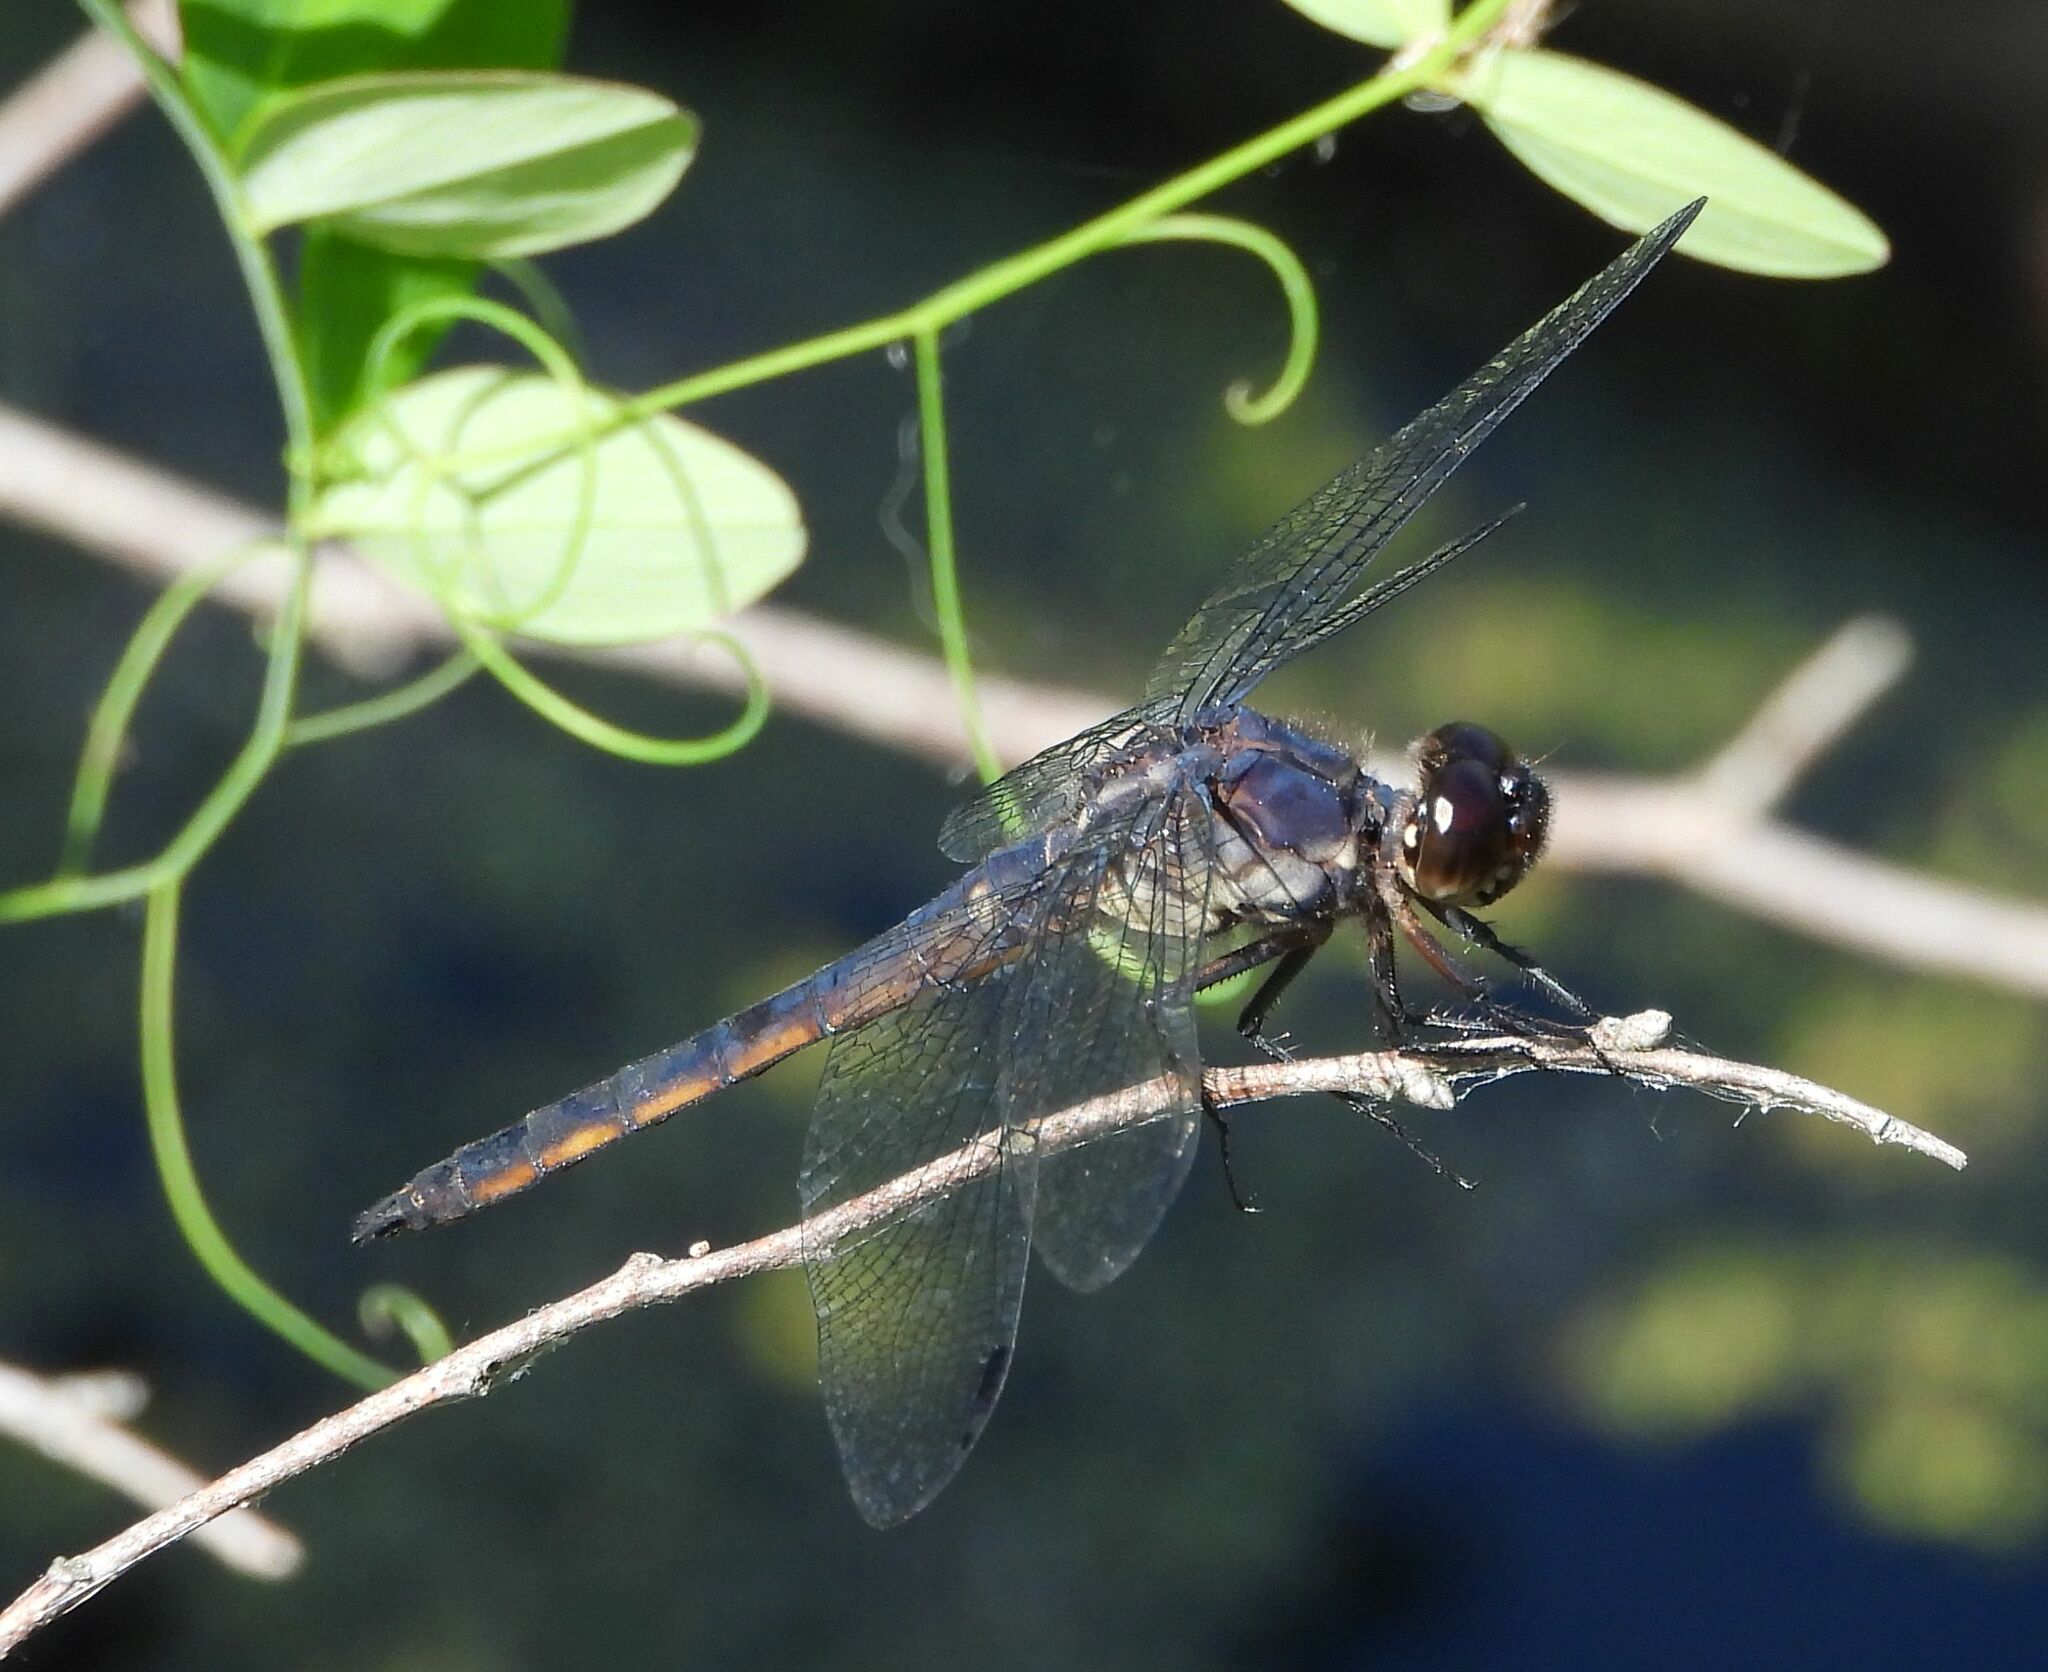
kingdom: Animalia
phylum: Arthropoda
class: Insecta
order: Odonata
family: Libellulidae
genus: Libellula
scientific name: Libellula incesta
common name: Slaty skimmer
